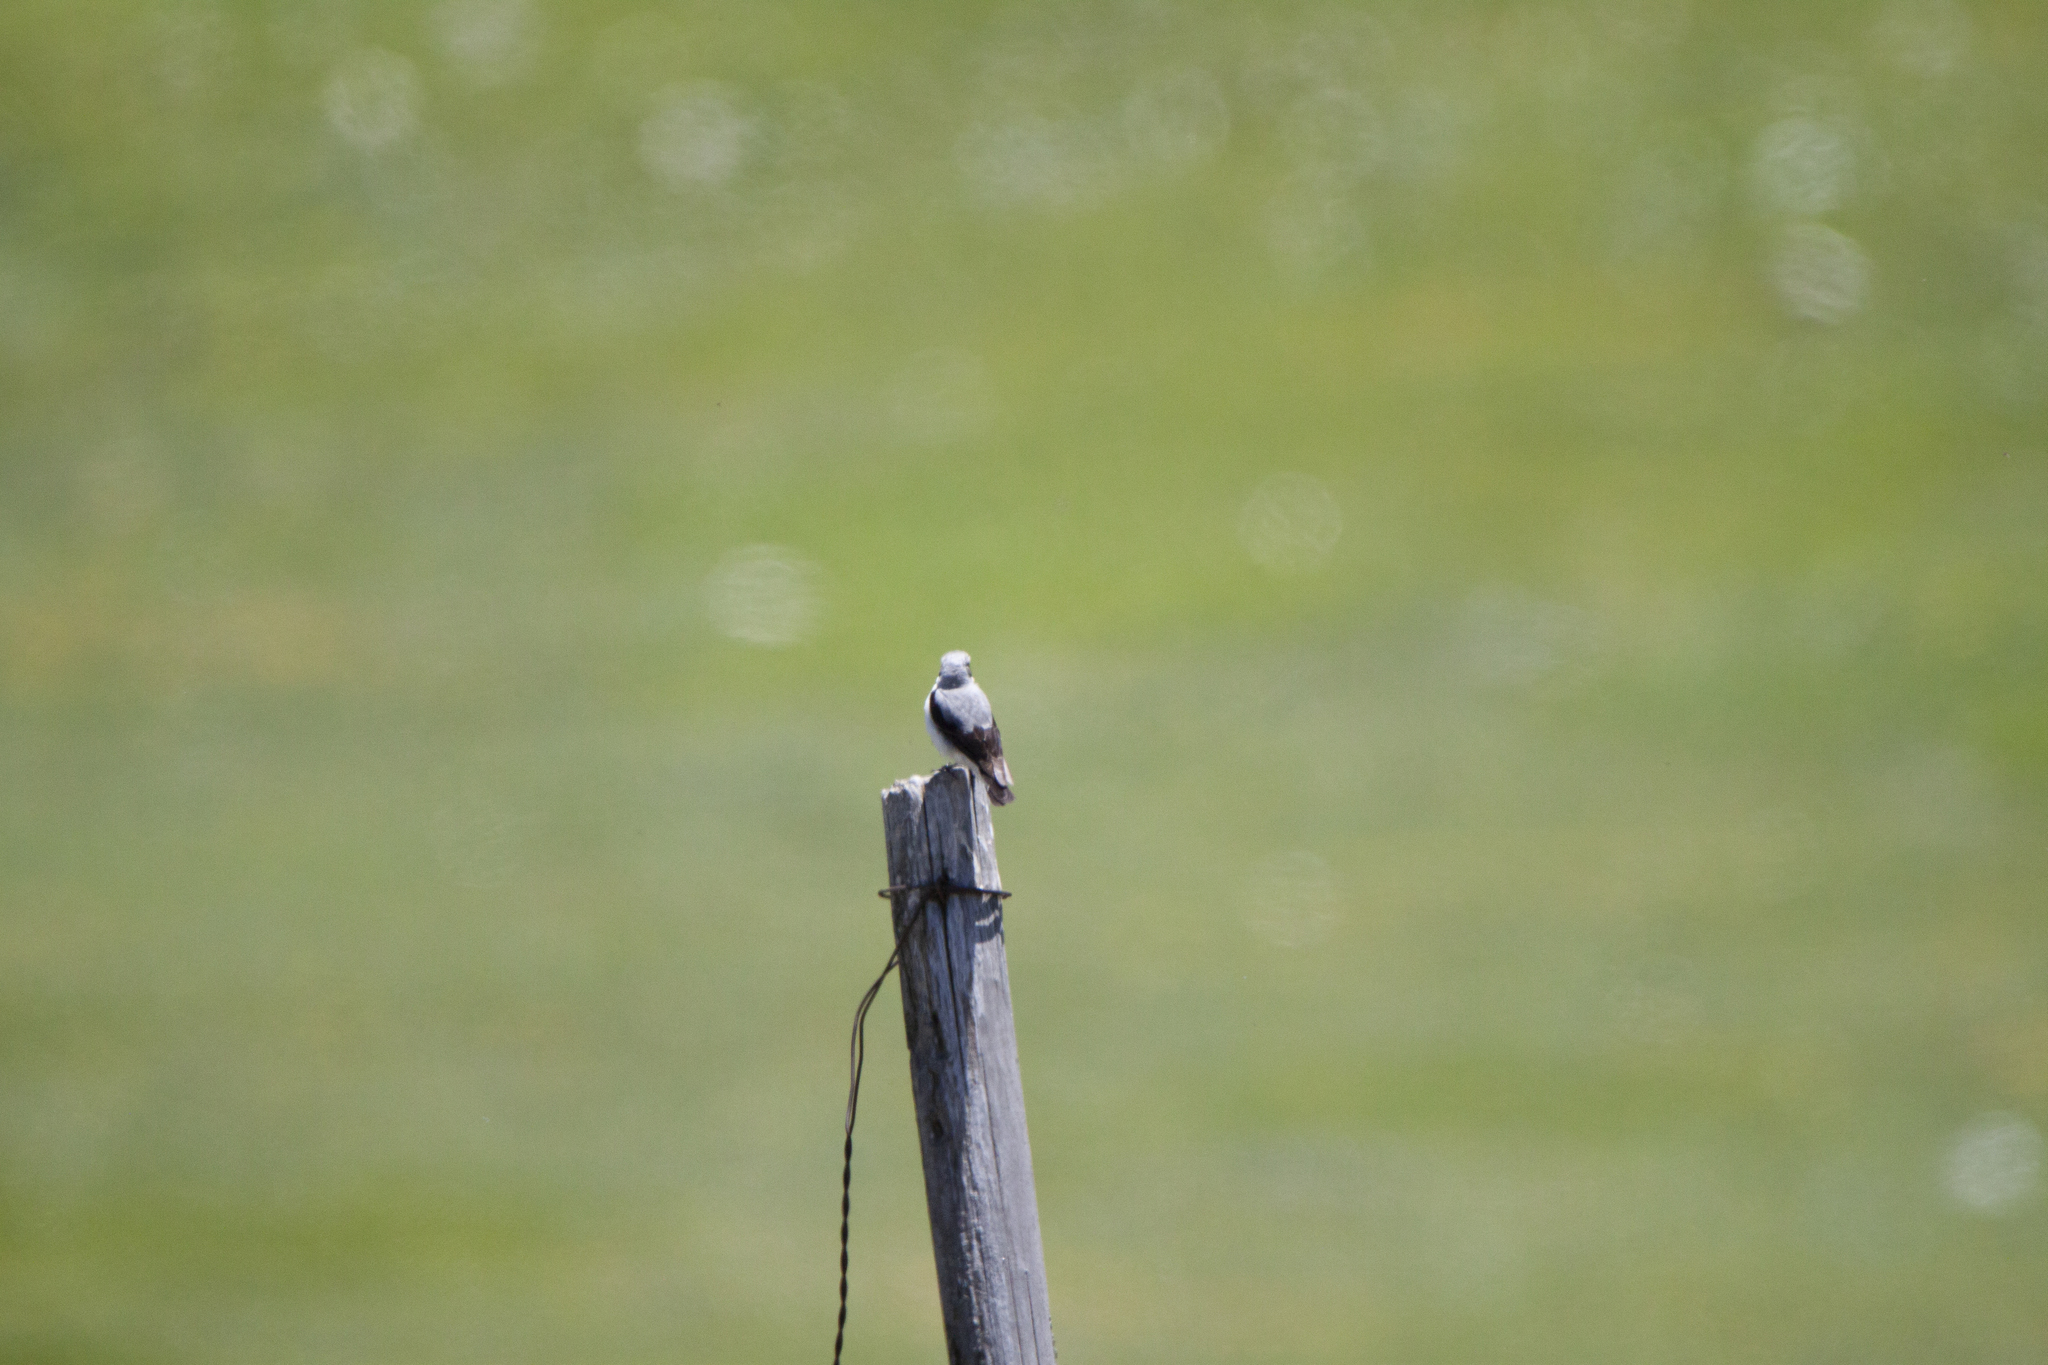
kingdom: Animalia
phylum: Chordata
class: Aves
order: Passeriformes
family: Muscicapidae
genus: Oenanthe
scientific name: Oenanthe oenanthe
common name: Northern wheatear
